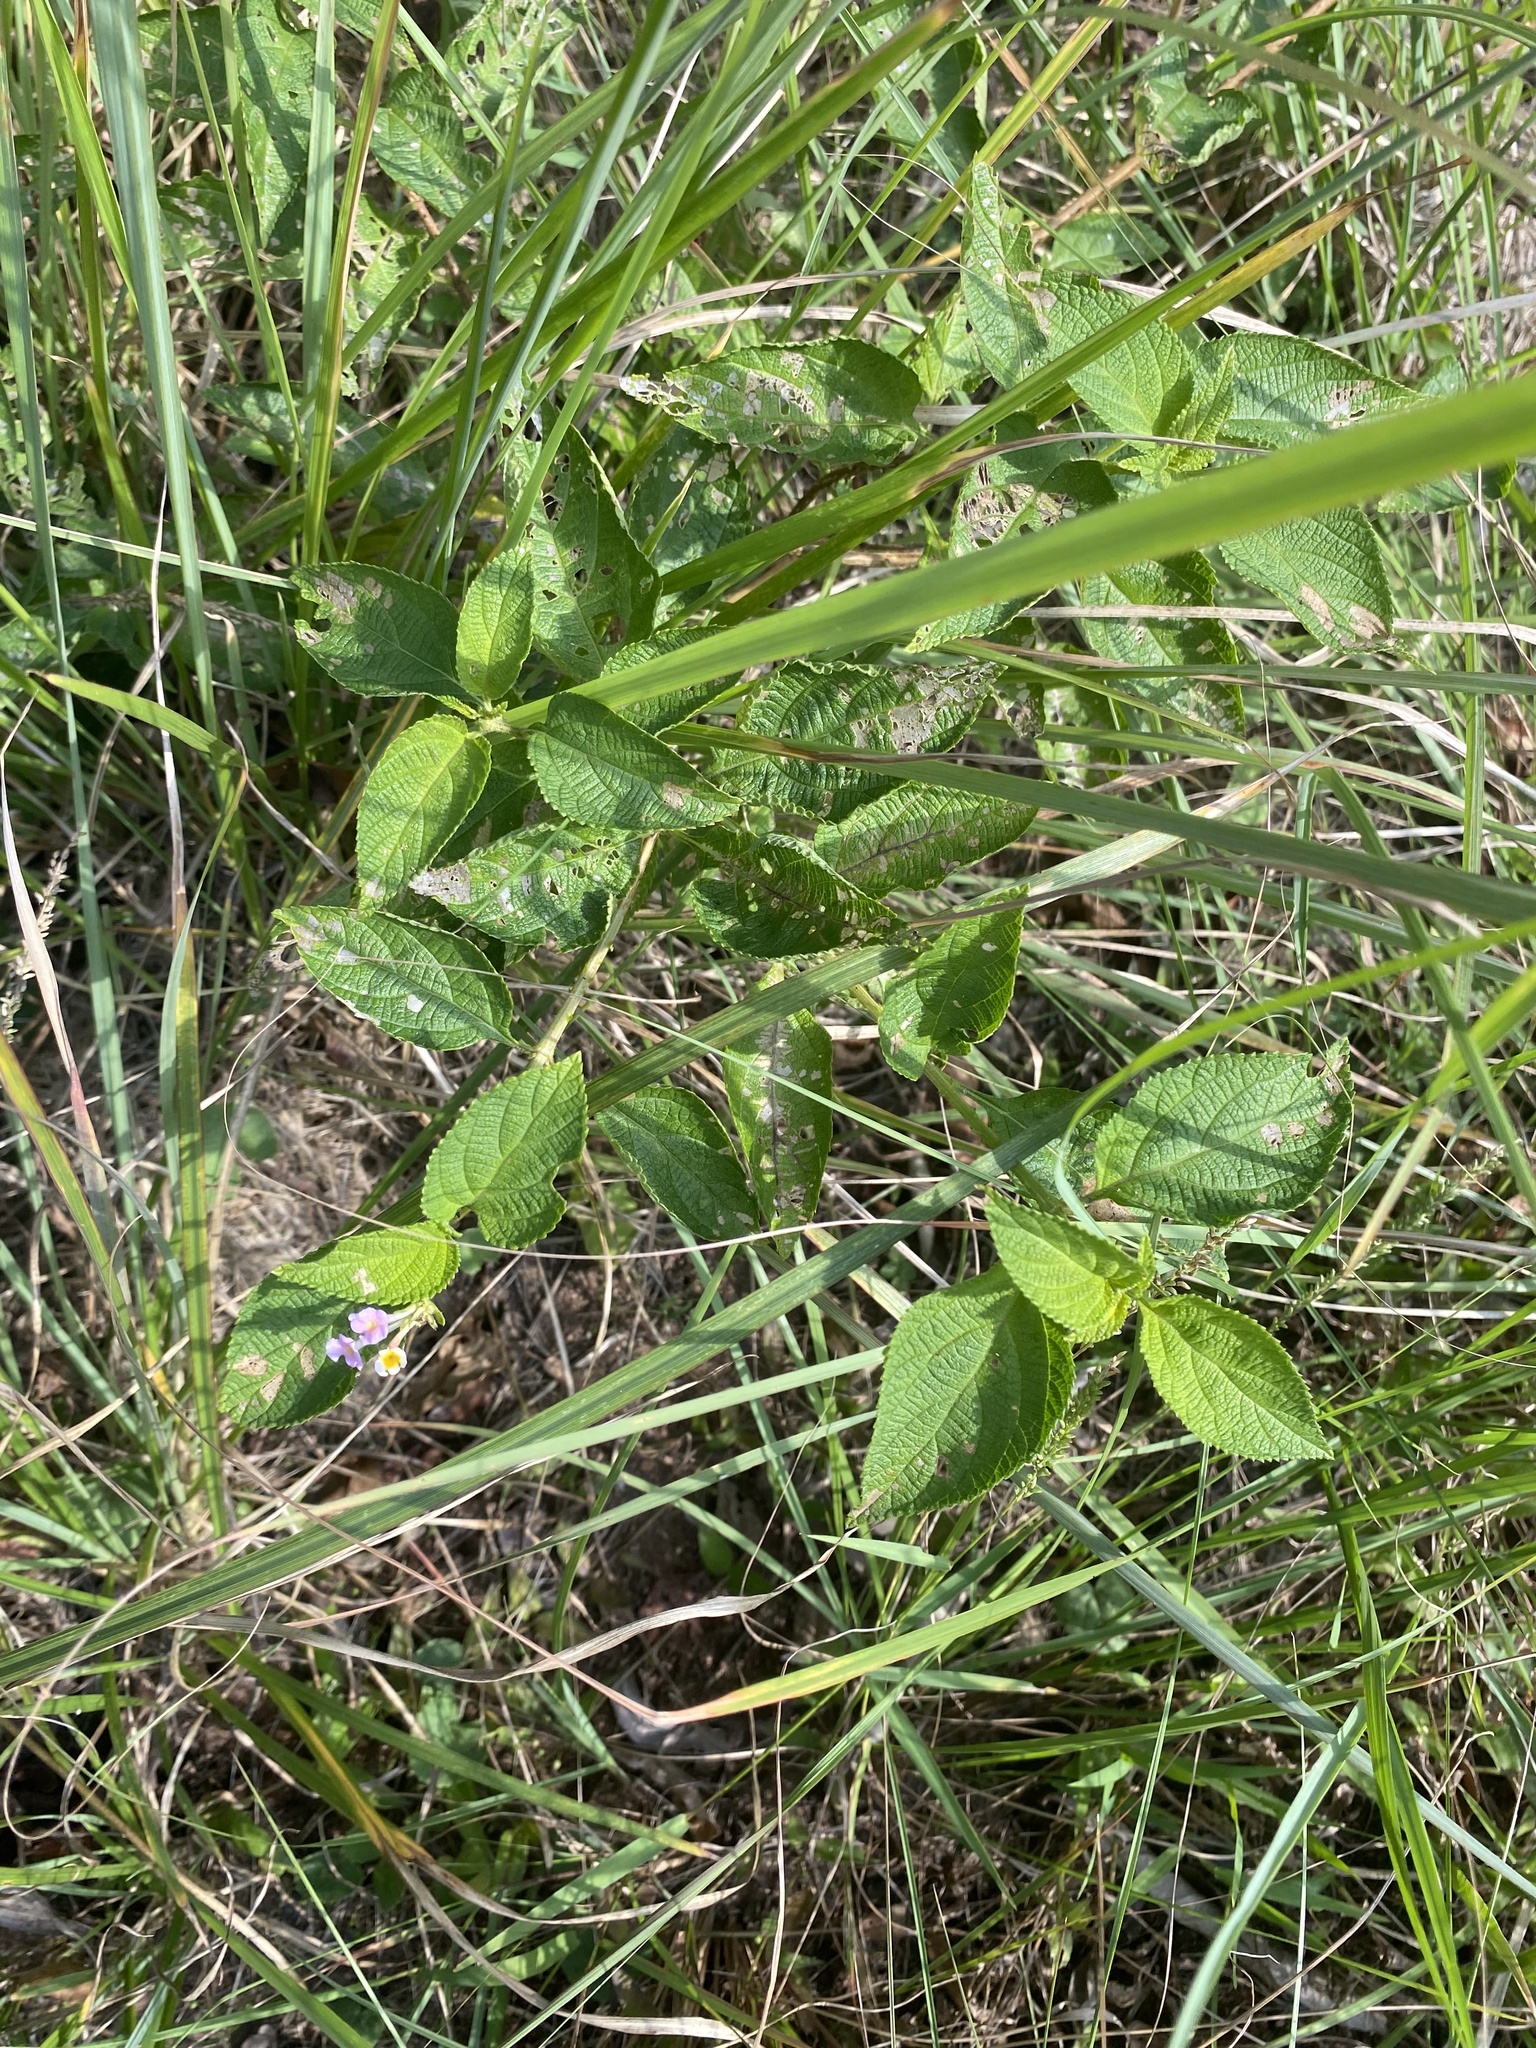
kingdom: Plantae
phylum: Tracheophyta
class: Magnoliopsida
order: Lamiales
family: Verbenaceae
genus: Lantana
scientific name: Lantana camara
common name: Lantana
